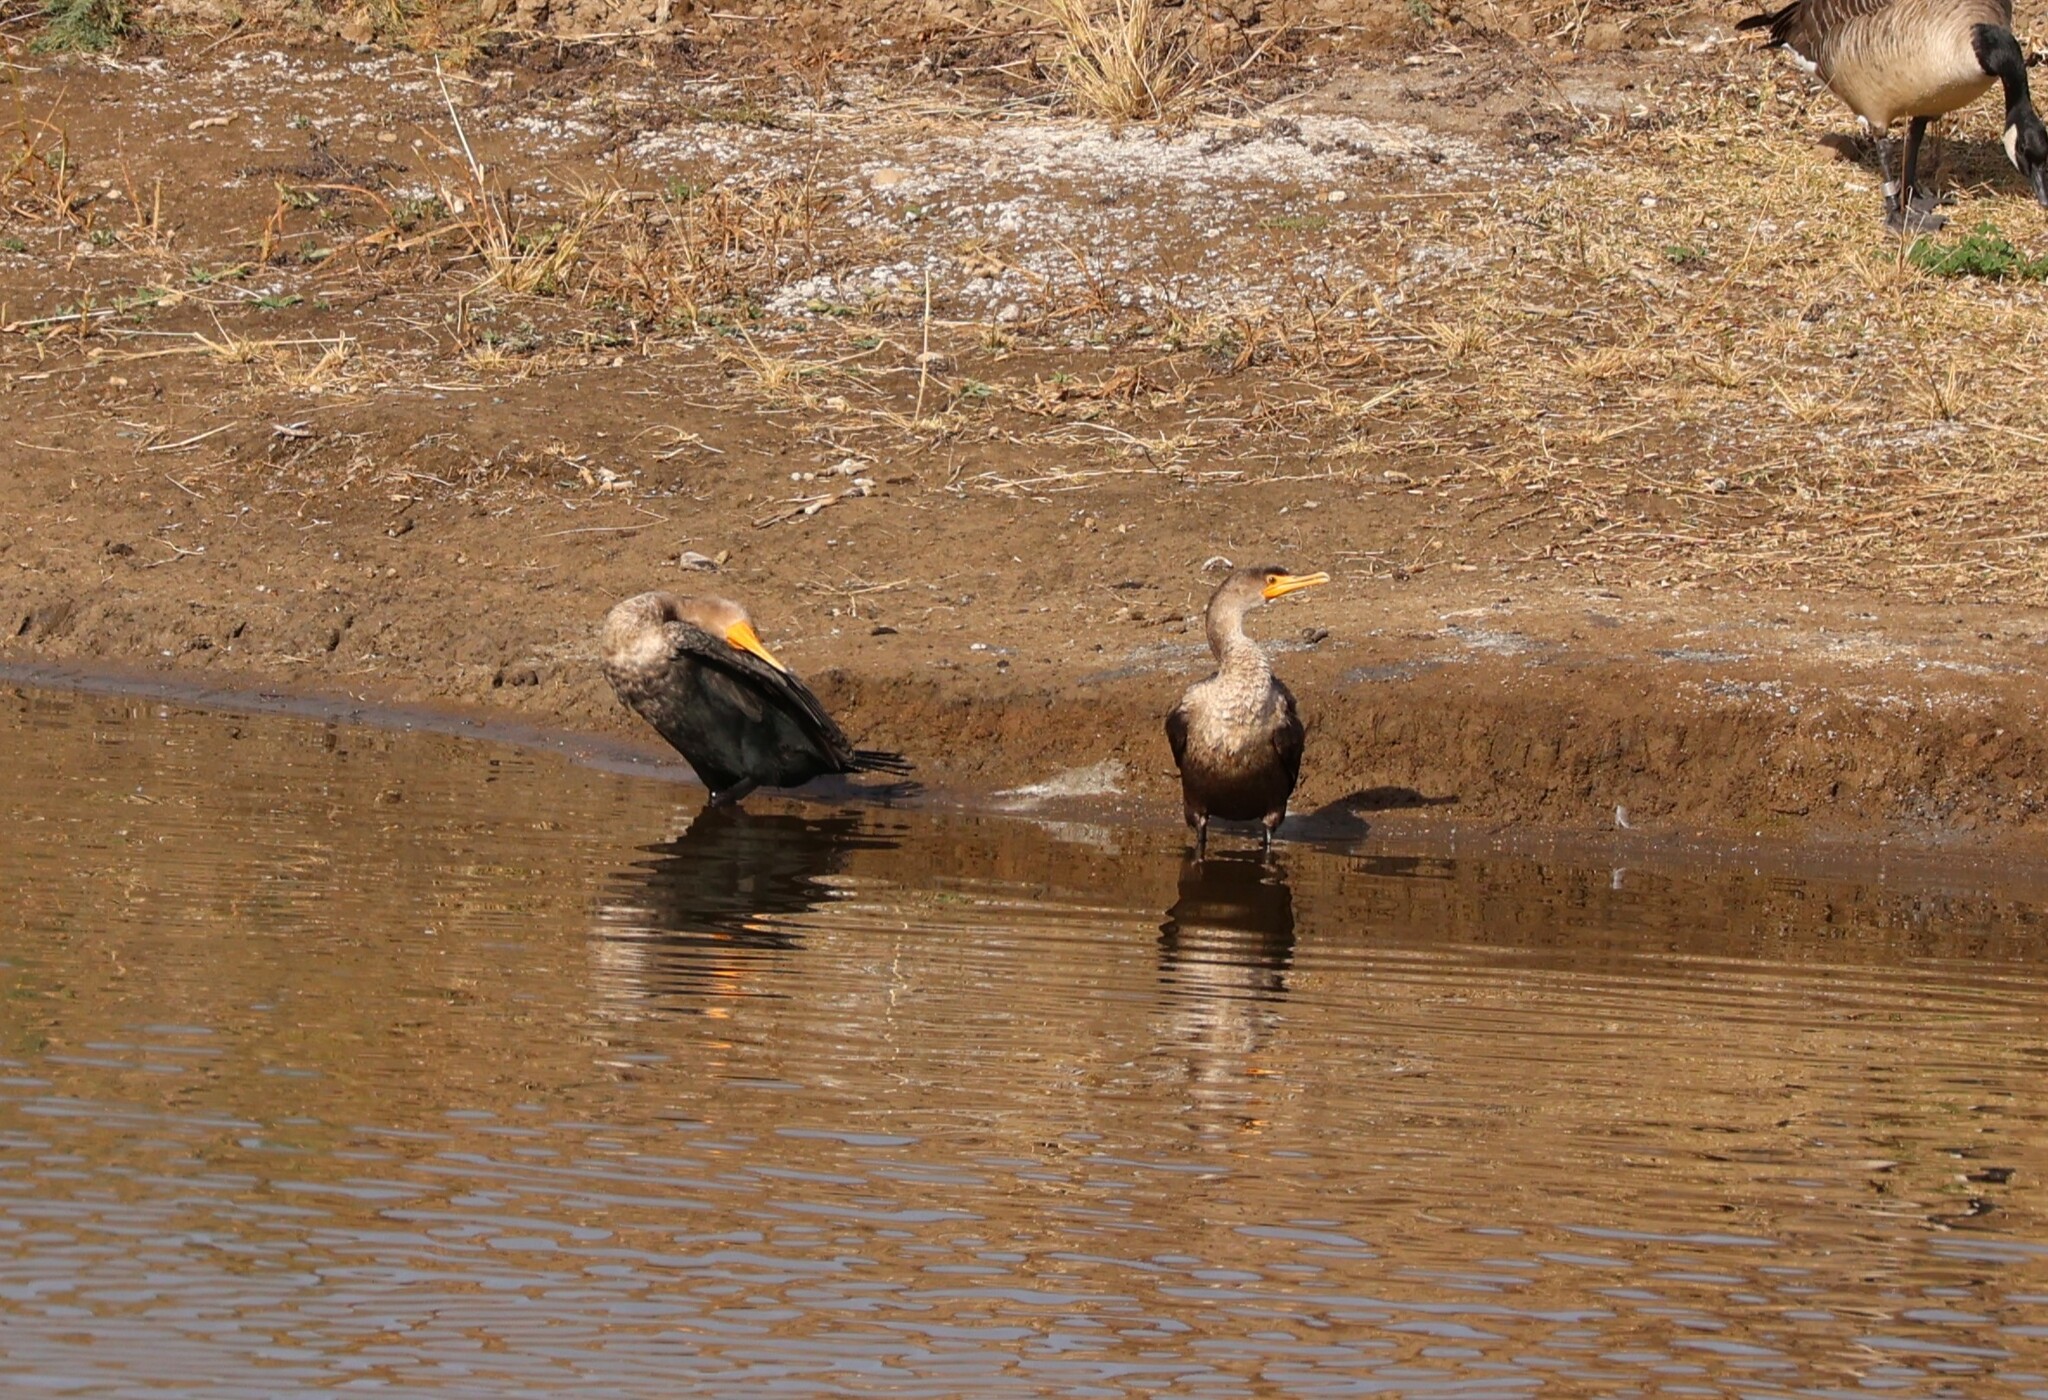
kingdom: Animalia
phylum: Chordata
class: Aves
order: Suliformes
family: Phalacrocoracidae
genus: Phalacrocorax
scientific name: Phalacrocorax auritus
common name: Double-crested cormorant
